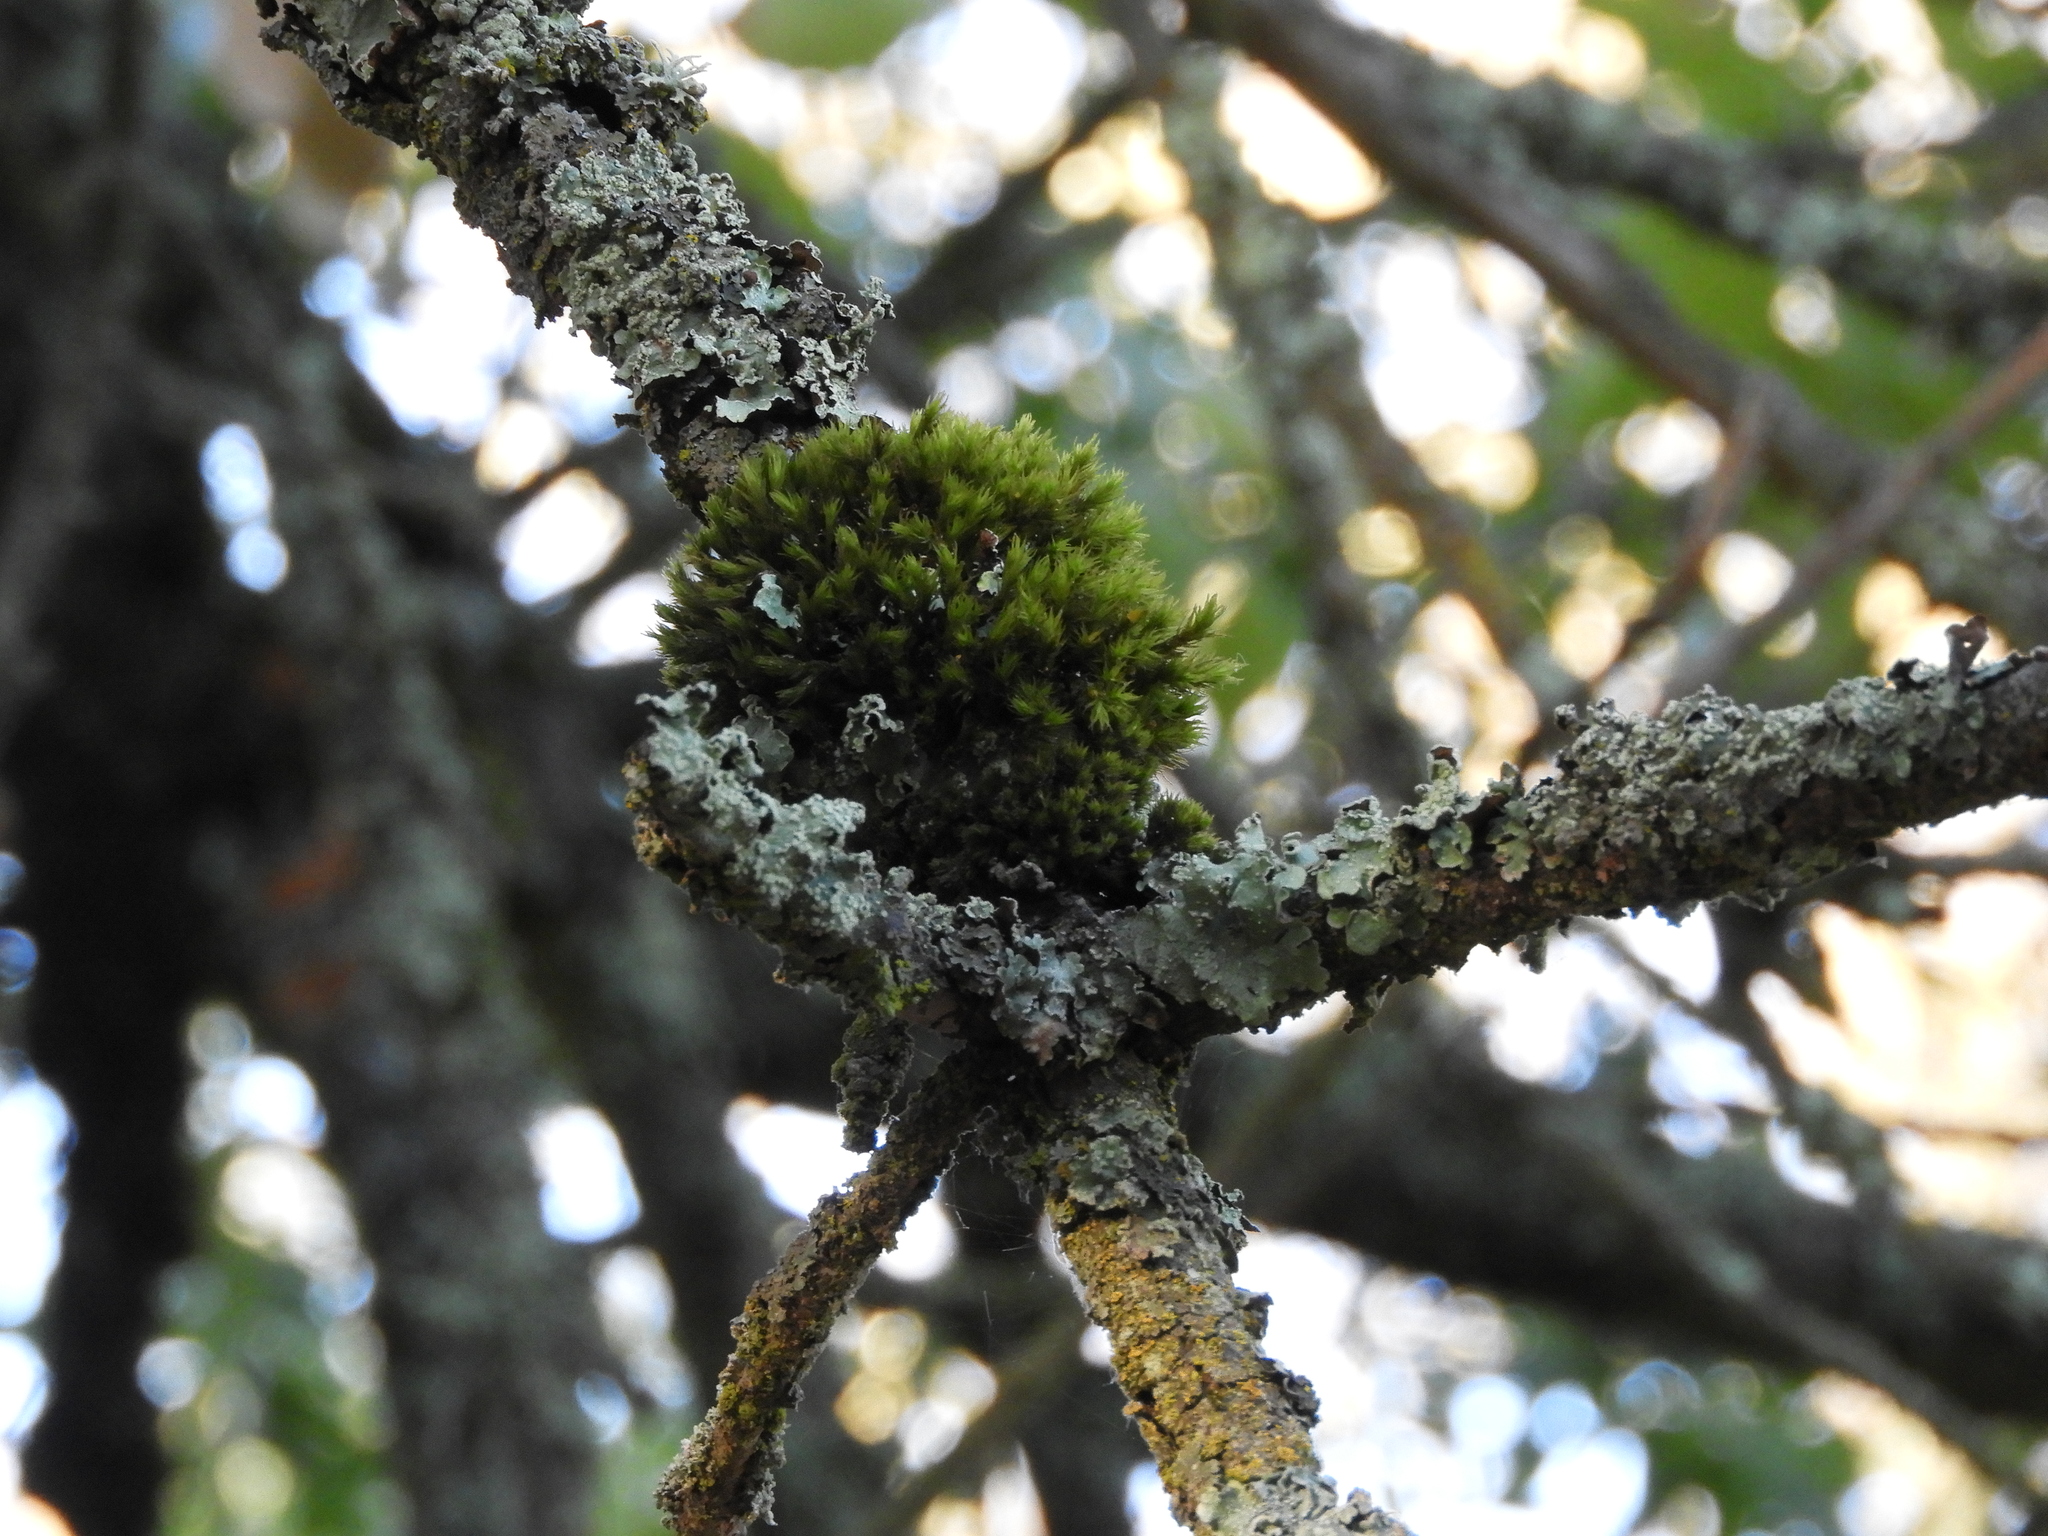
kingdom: Plantae
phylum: Bryophyta
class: Bryopsida
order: Orthotrichales
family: Orthotrichaceae
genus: Ulota
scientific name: Ulota crispa
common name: Crisped pincushion moss
